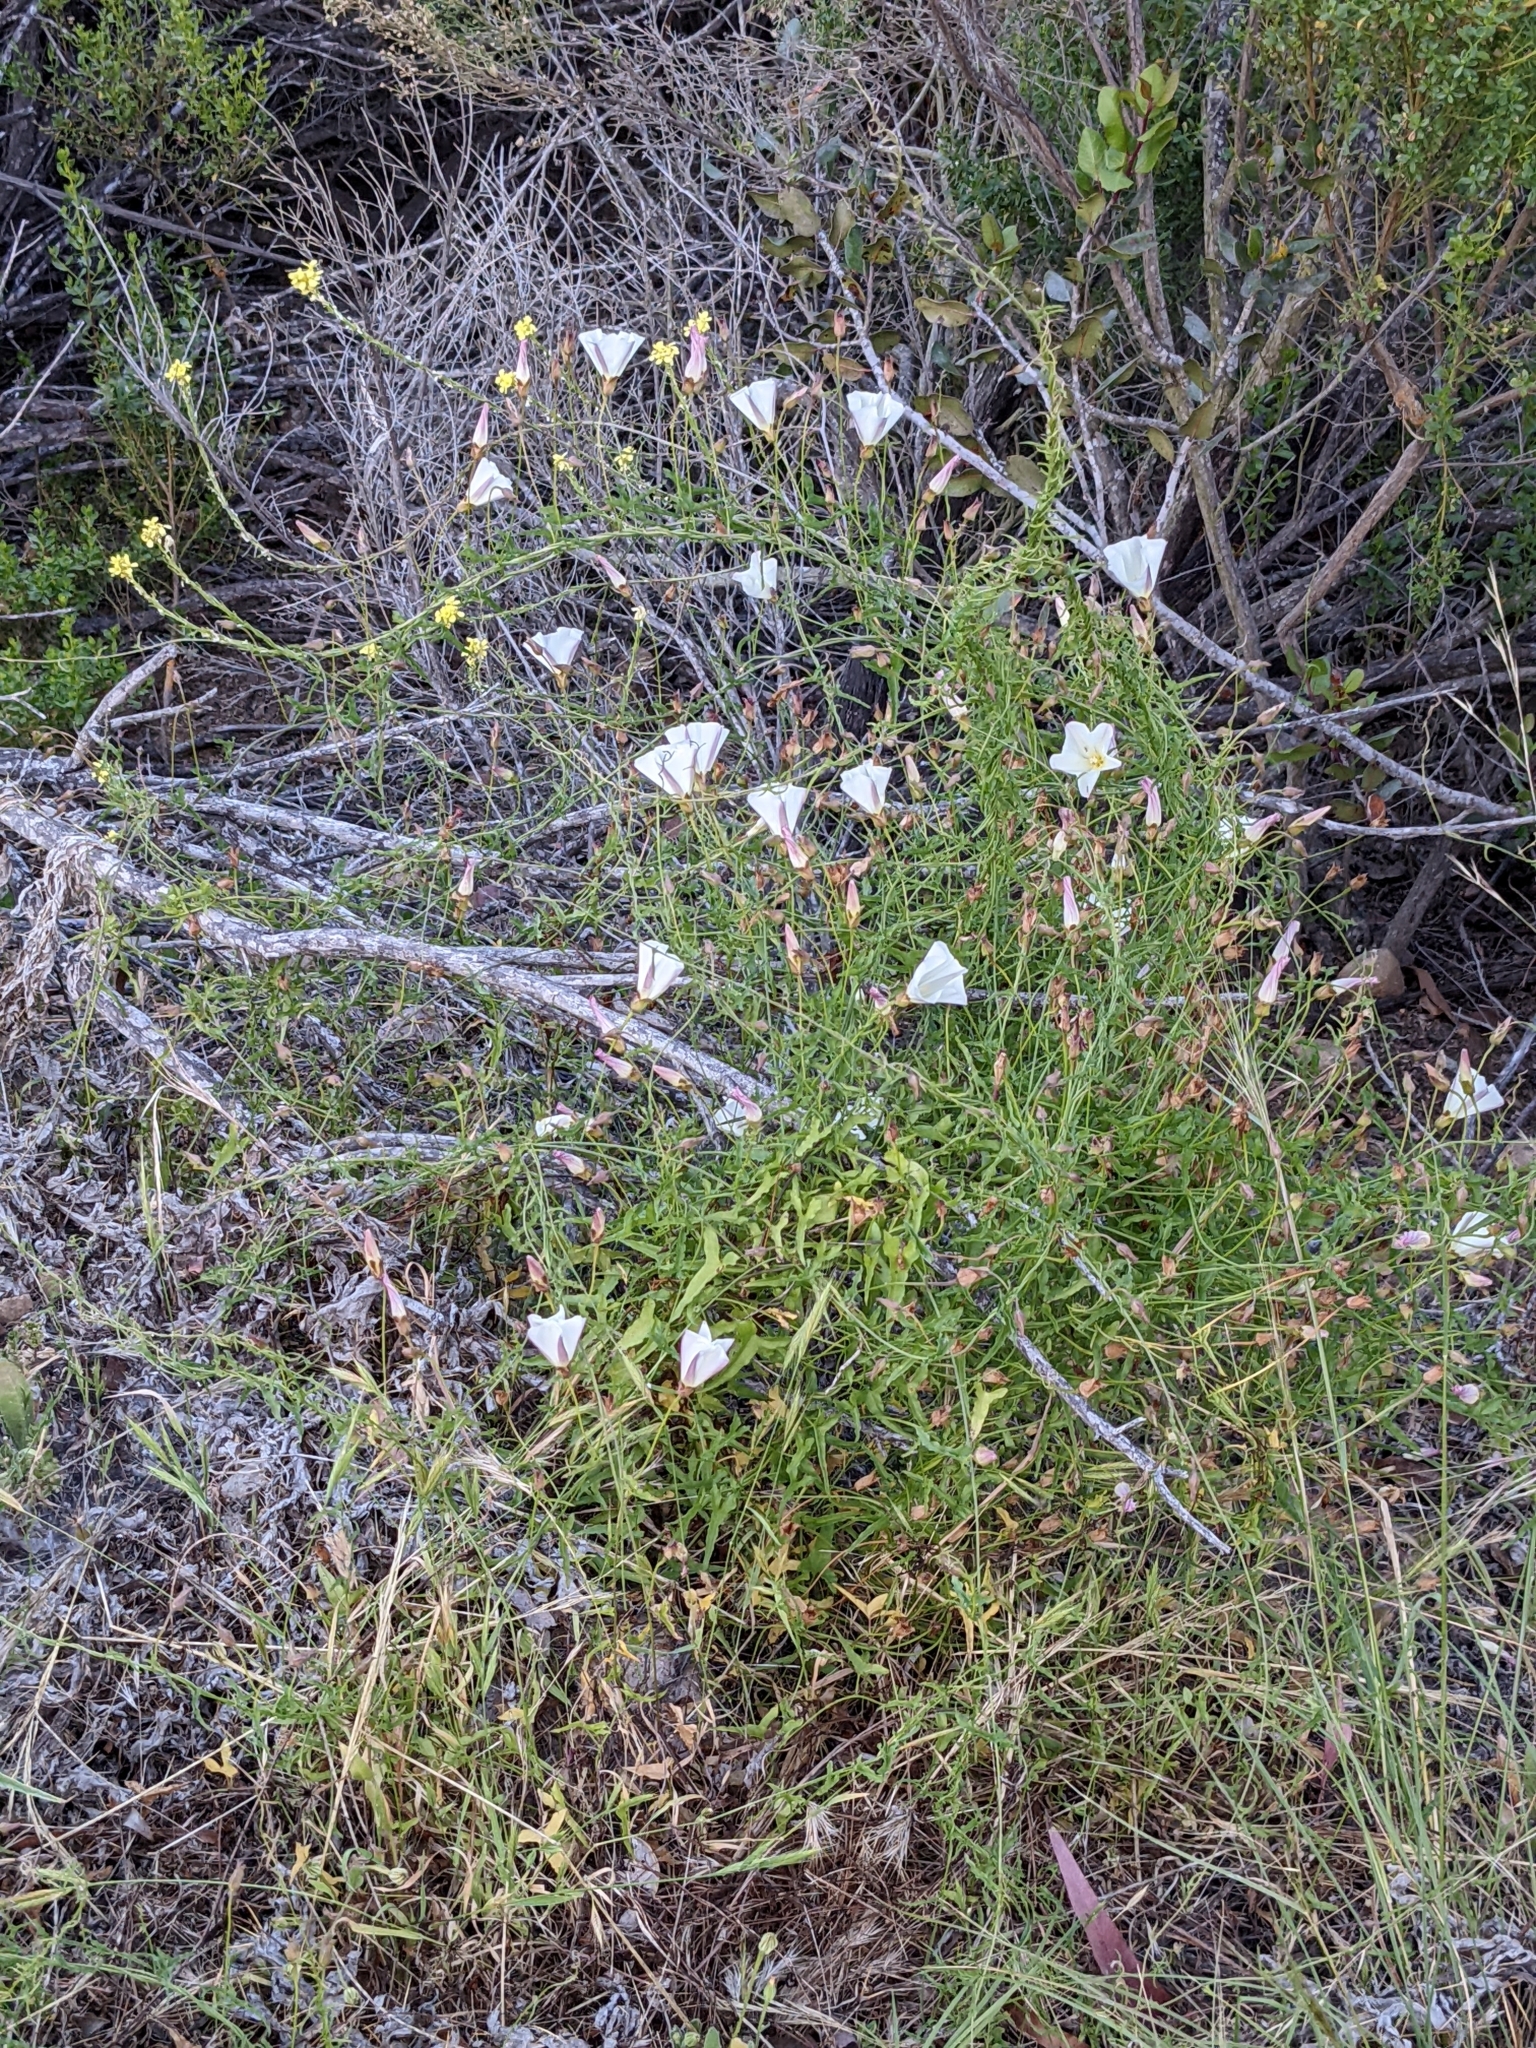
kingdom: Plantae
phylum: Tracheophyta
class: Magnoliopsida
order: Solanales
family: Convolvulaceae
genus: Calystegia
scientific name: Calystegia macrostegia
